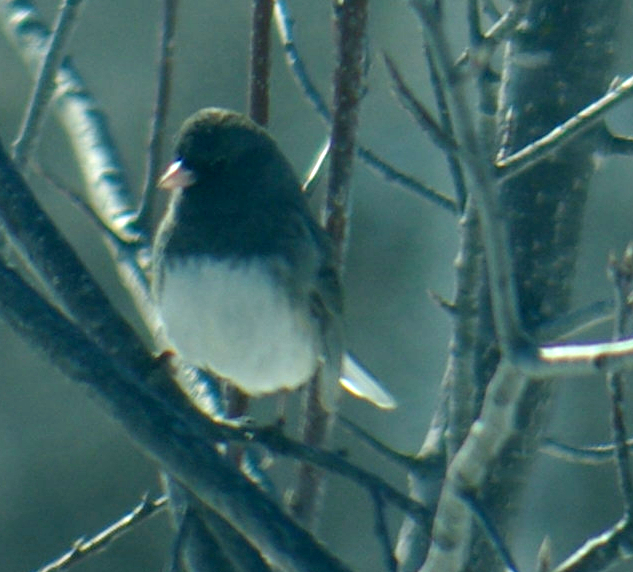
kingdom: Animalia
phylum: Chordata
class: Aves
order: Passeriformes
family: Passerellidae
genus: Junco
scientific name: Junco hyemalis
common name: Dark-eyed junco
